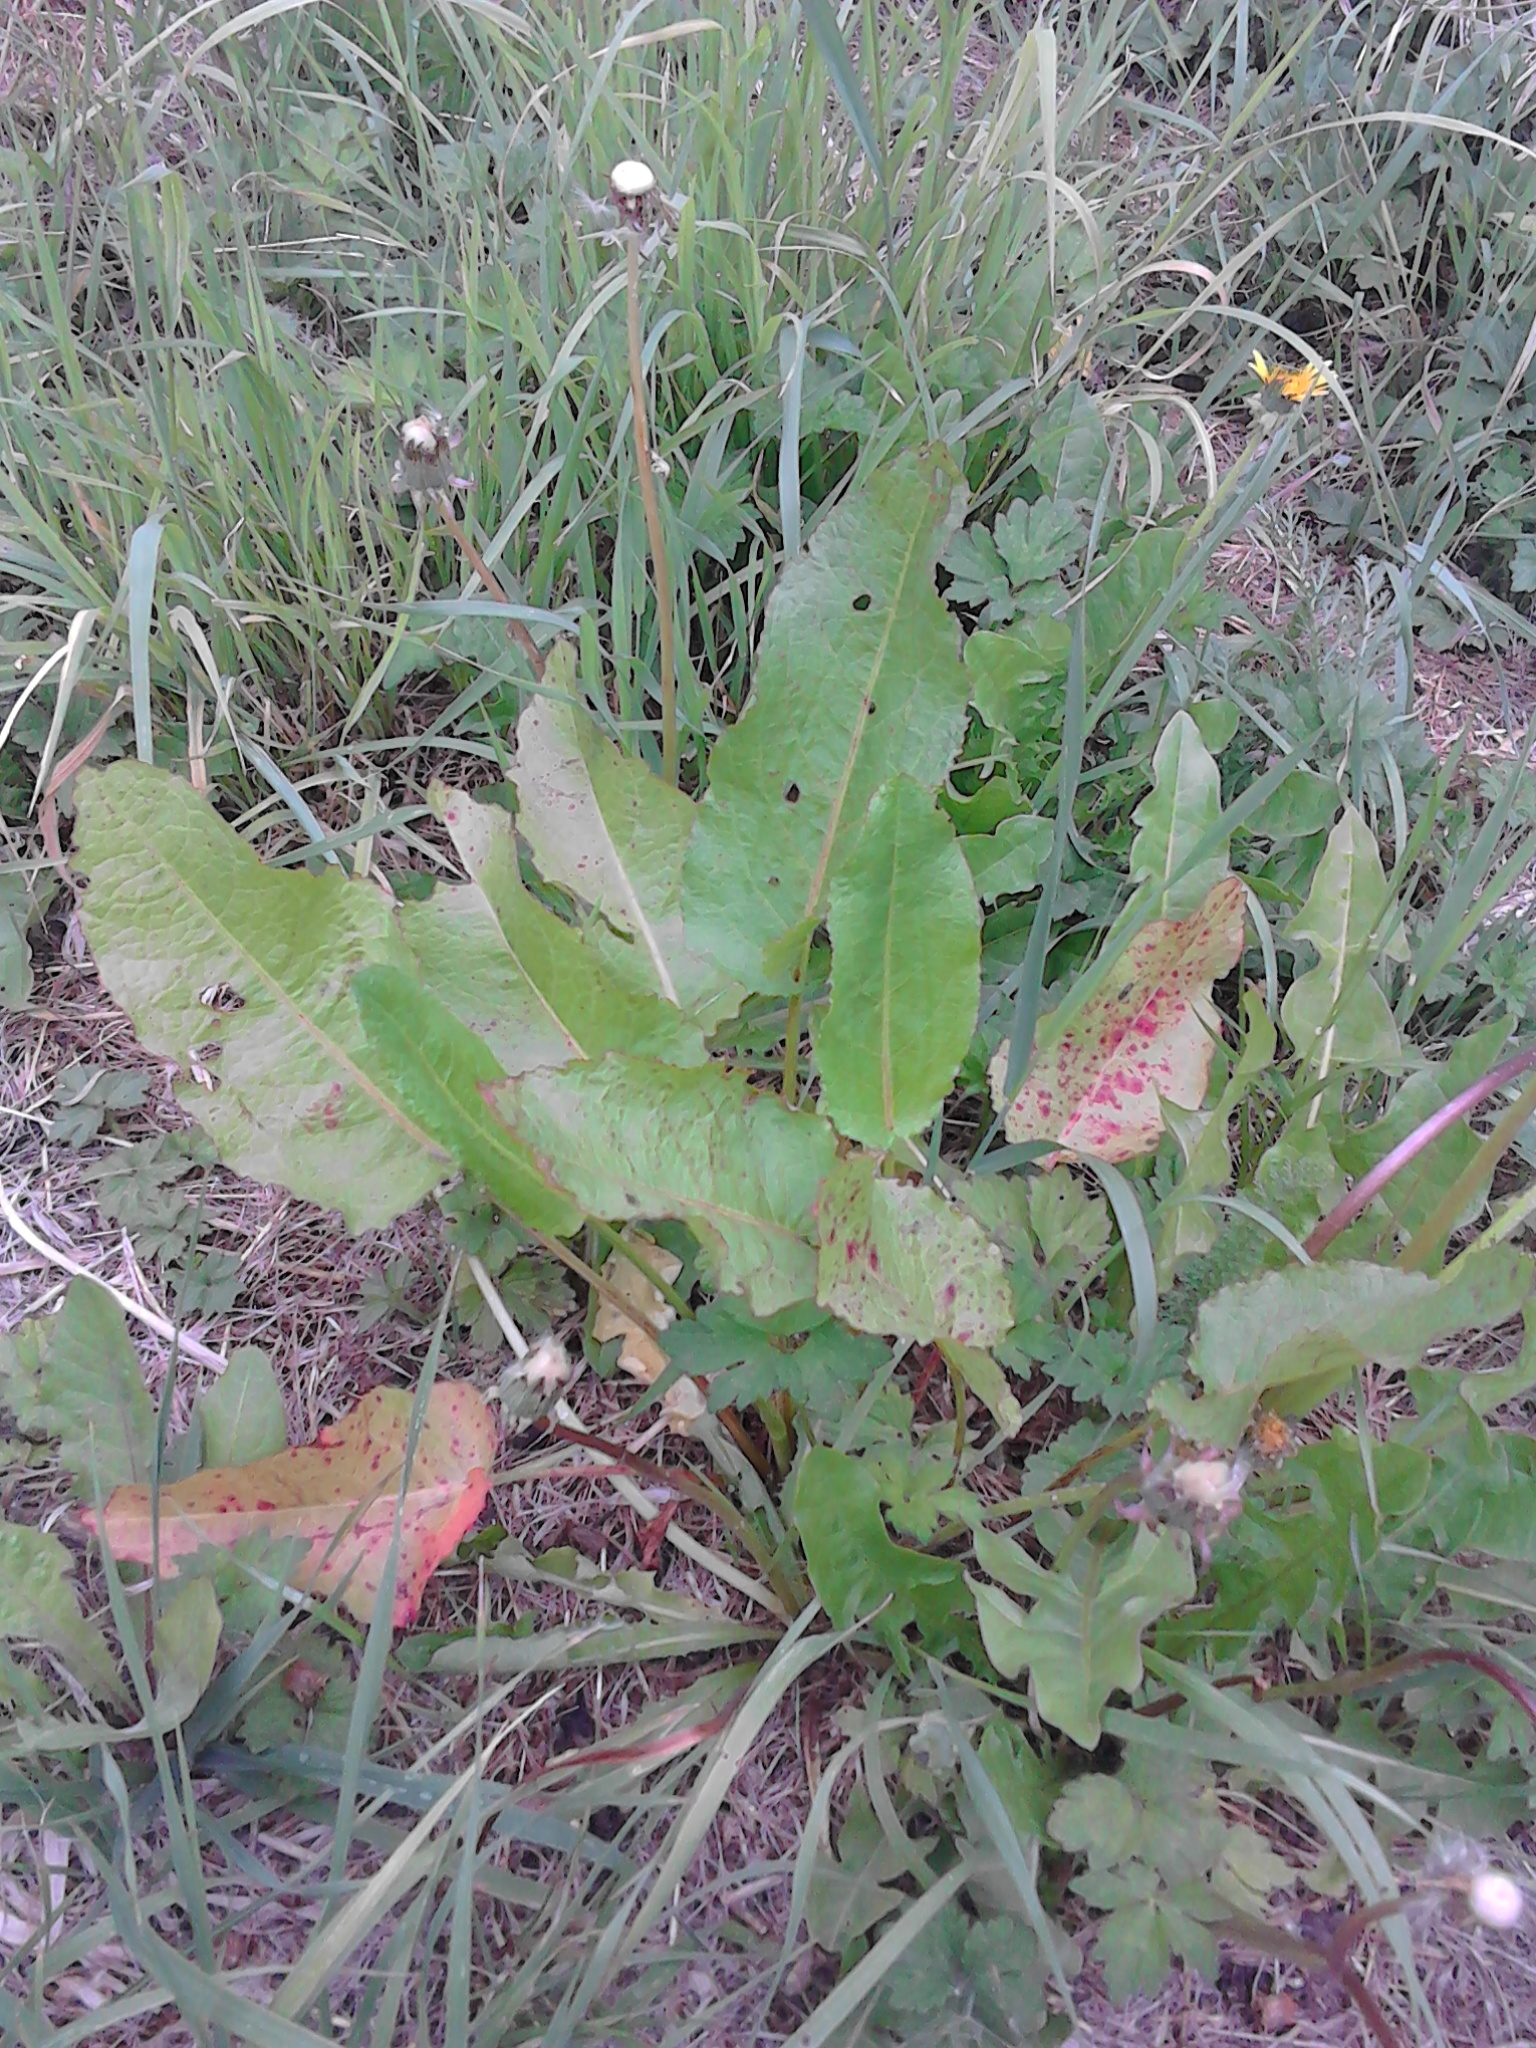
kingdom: Plantae
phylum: Tracheophyta
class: Magnoliopsida
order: Caryophyllales
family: Polygonaceae
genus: Rumex
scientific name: Rumex obtusifolius
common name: Bitter dock
